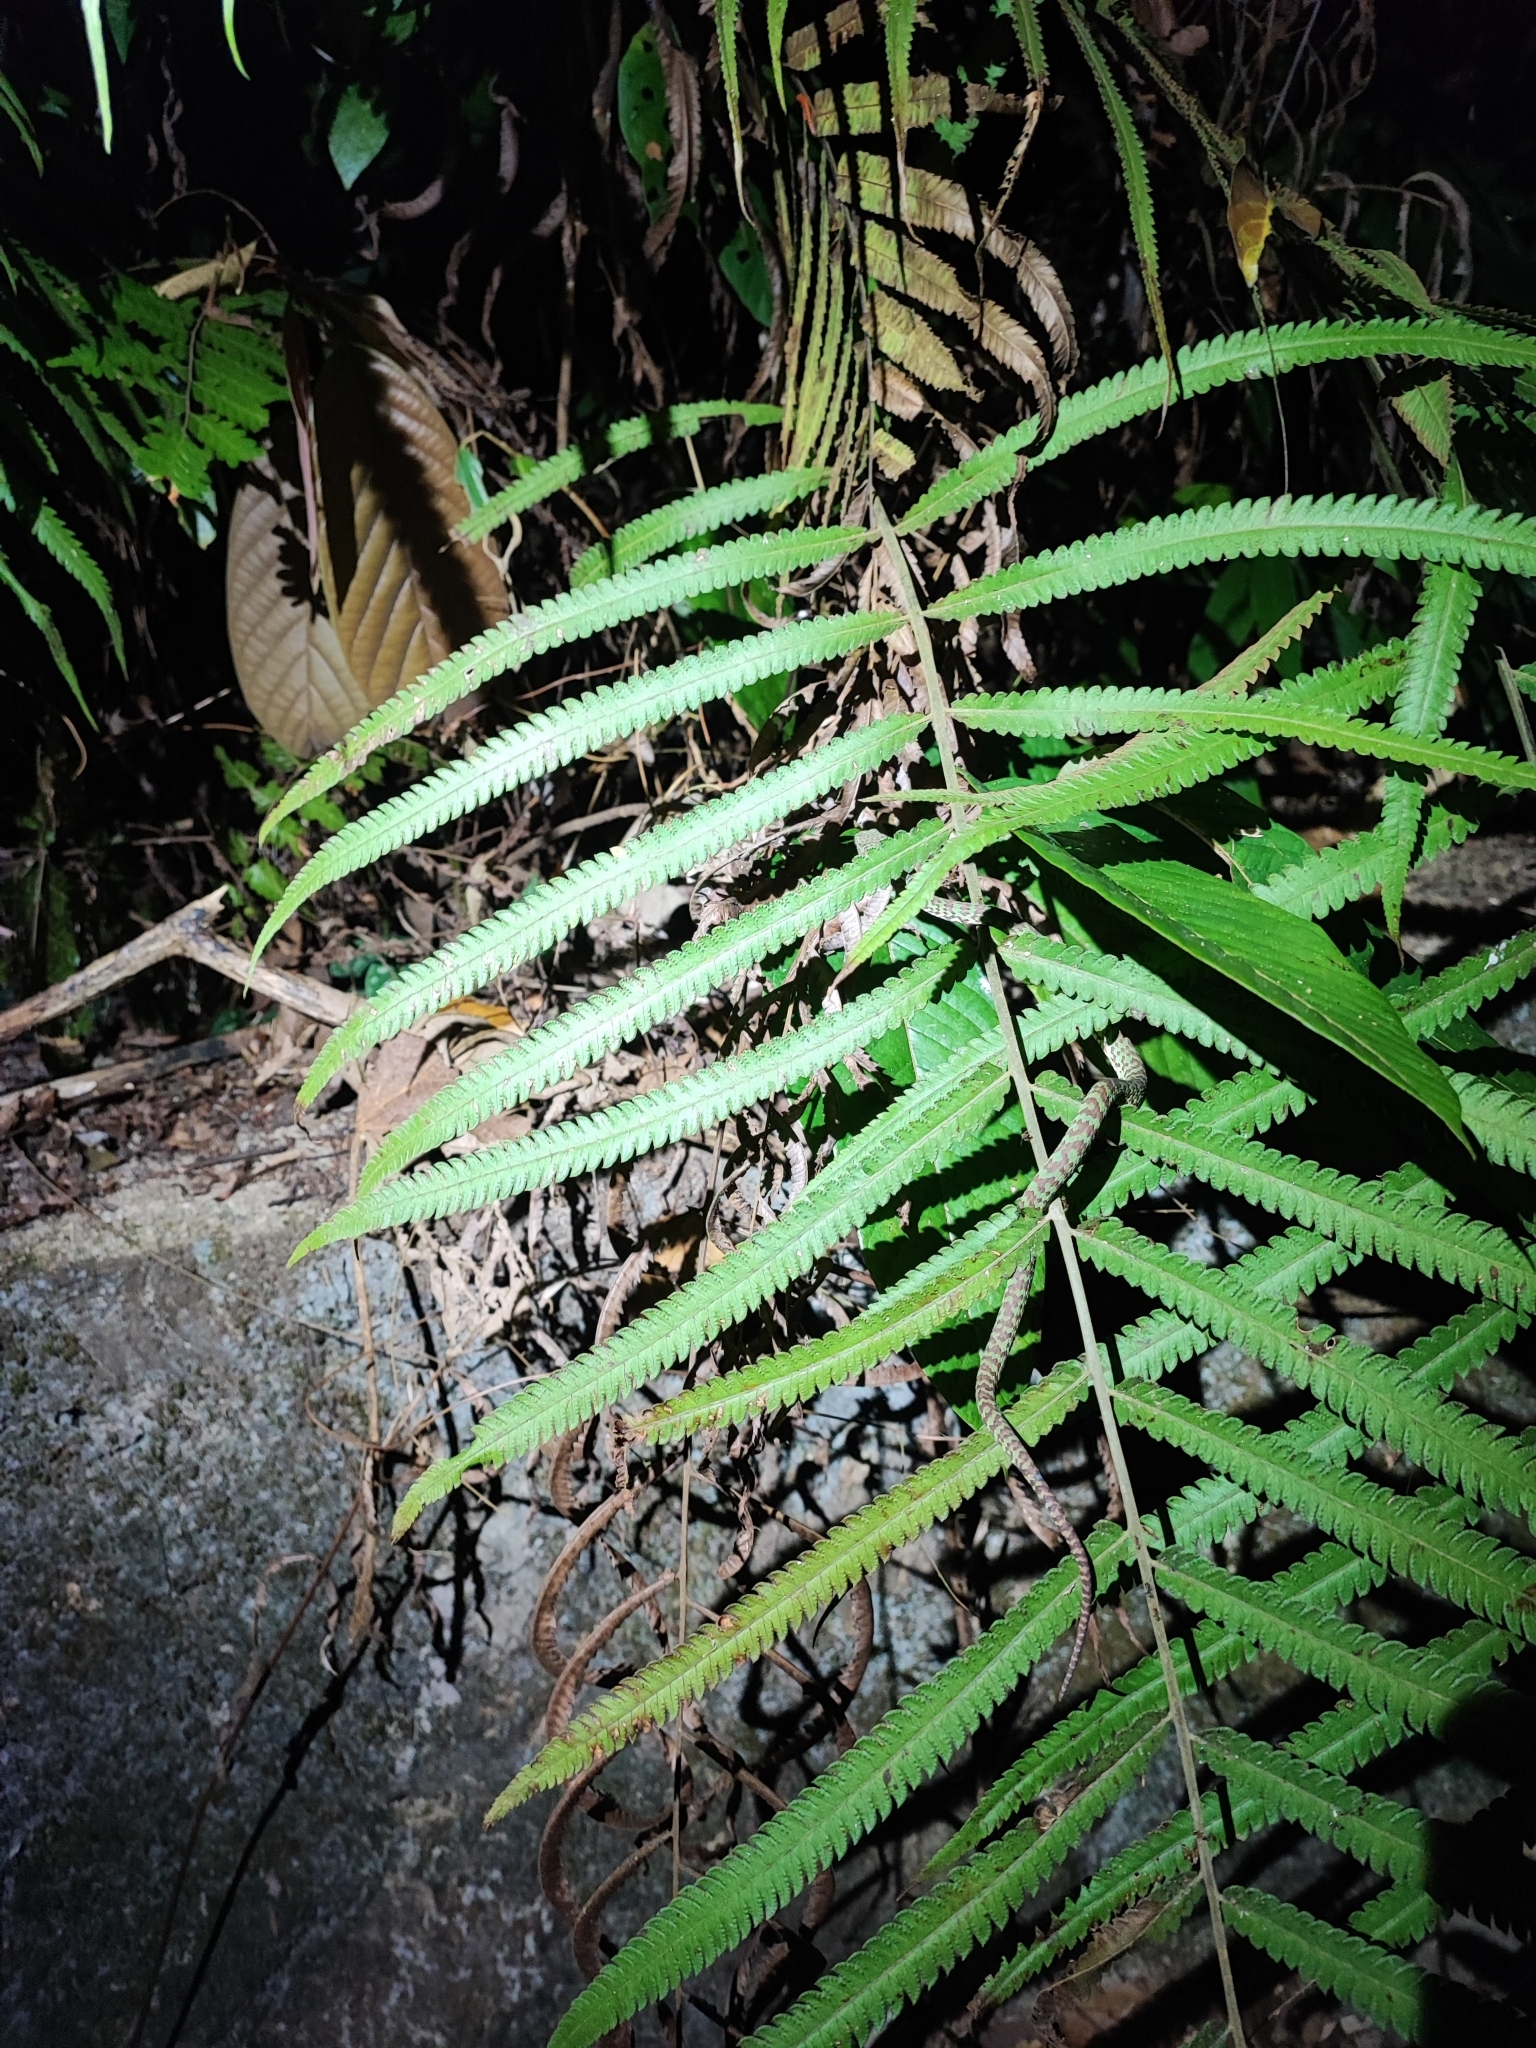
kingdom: Animalia
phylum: Chordata
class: Squamata
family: Viperidae
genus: Trimeresurus
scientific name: Trimeresurus venustus
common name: Brown-spotted pit viper
